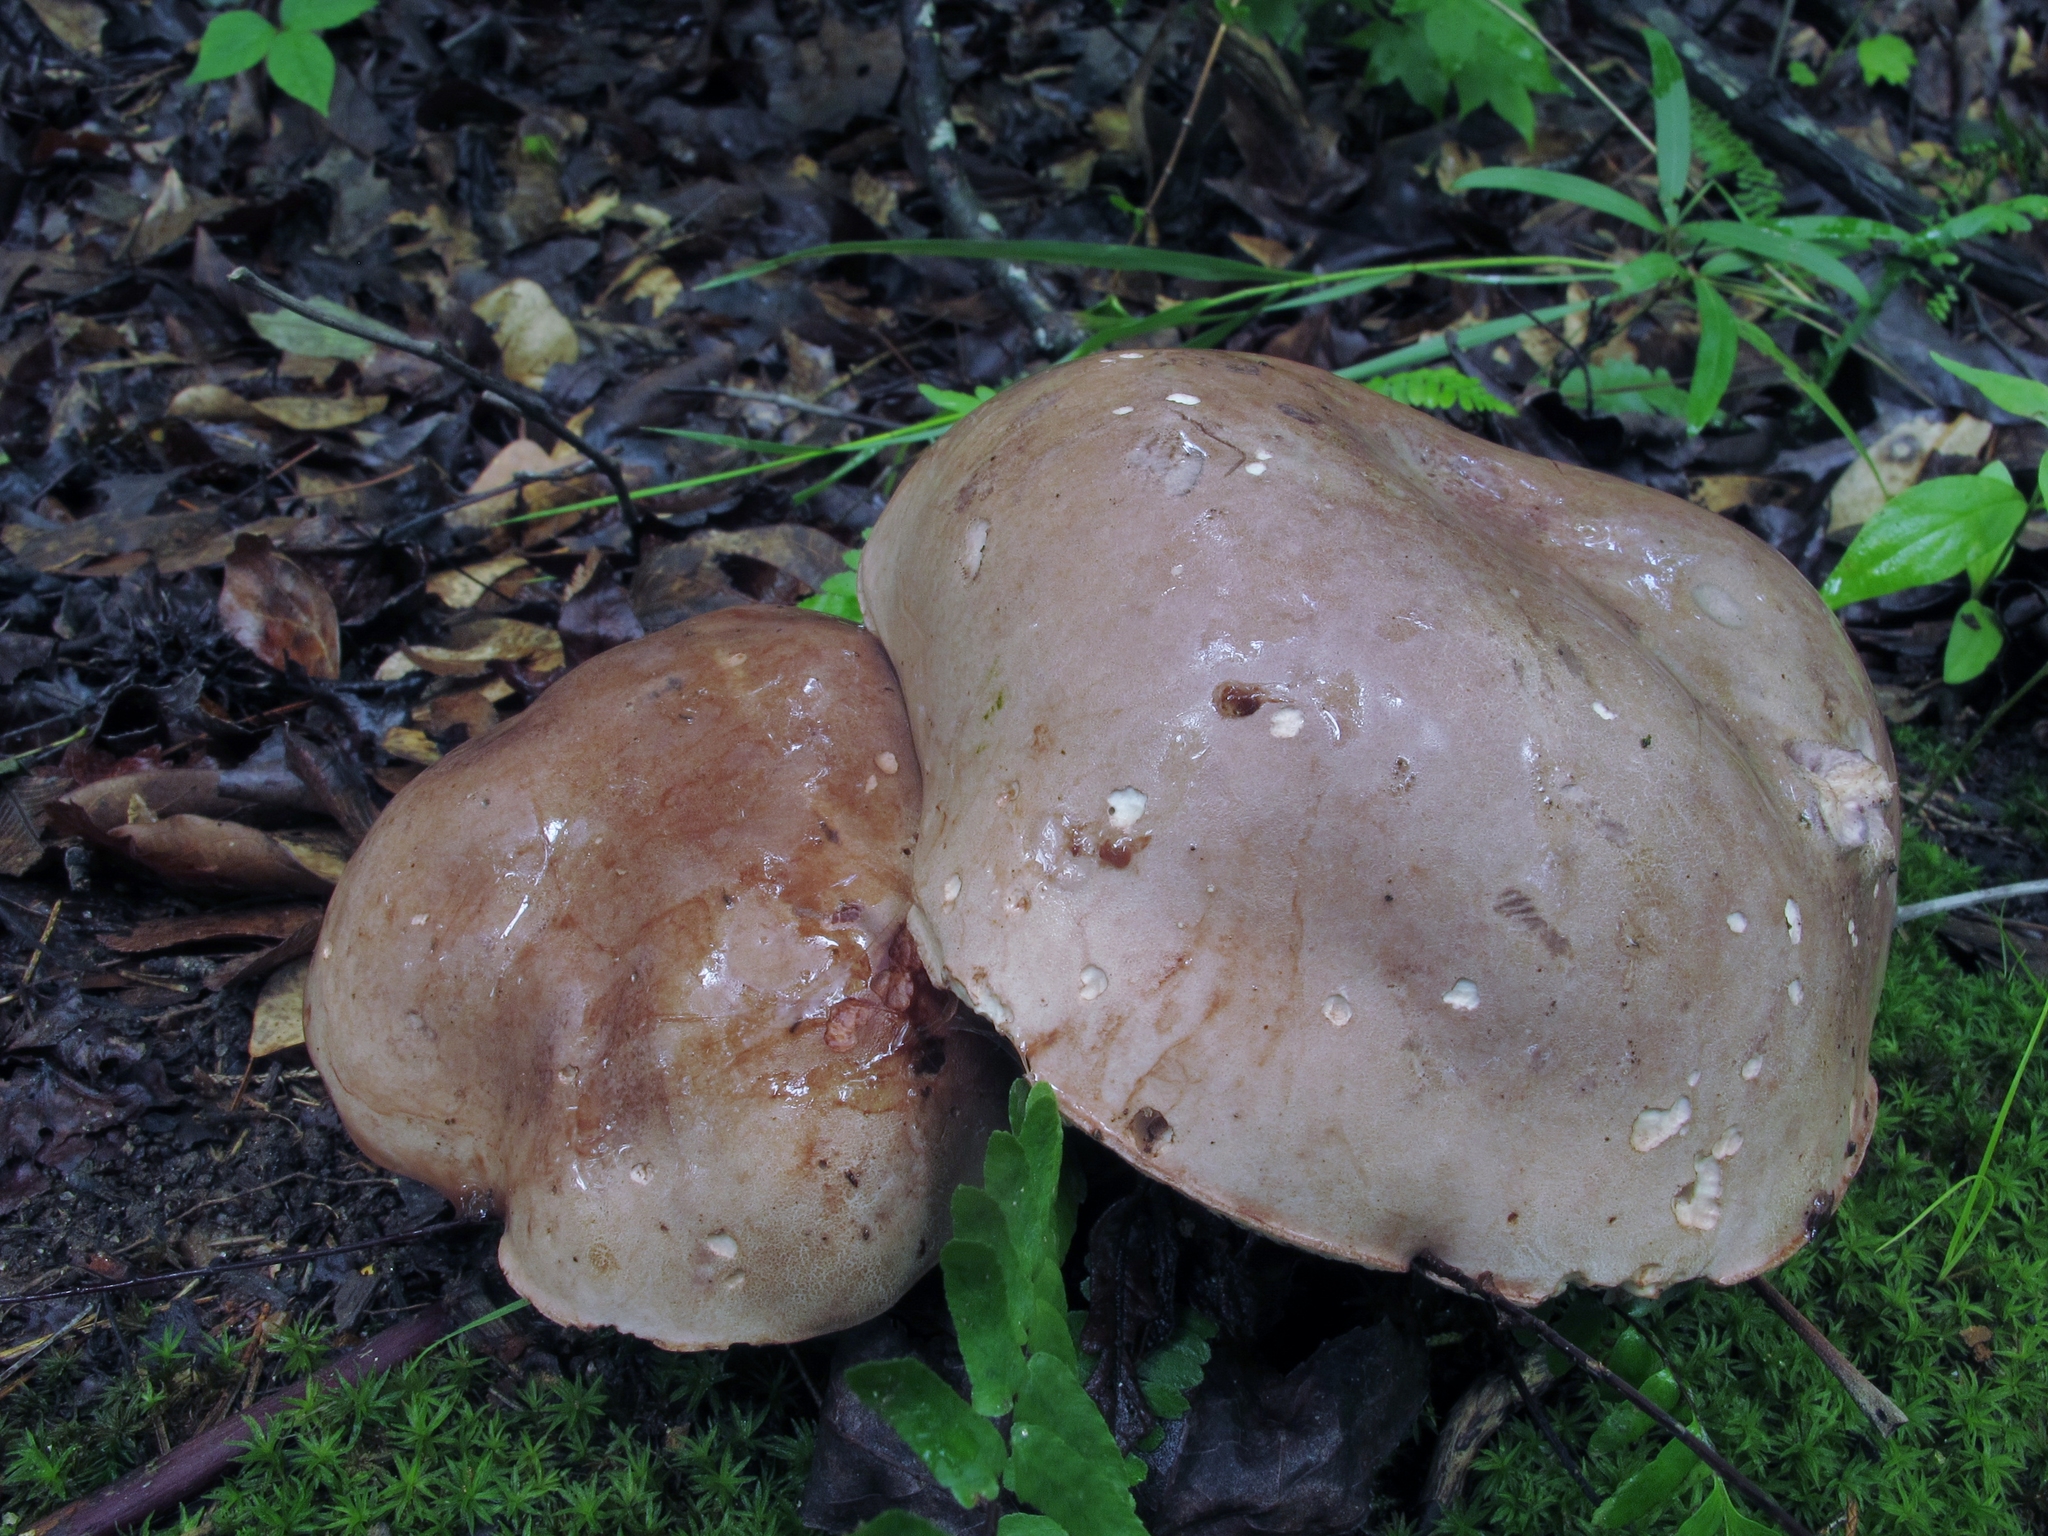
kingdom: Fungi
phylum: Basidiomycota
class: Agaricomycetes
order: Boletales
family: Boletaceae
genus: Tylopilus
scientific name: Tylopilus plumbeoviolaceus
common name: Violet gray bolete
